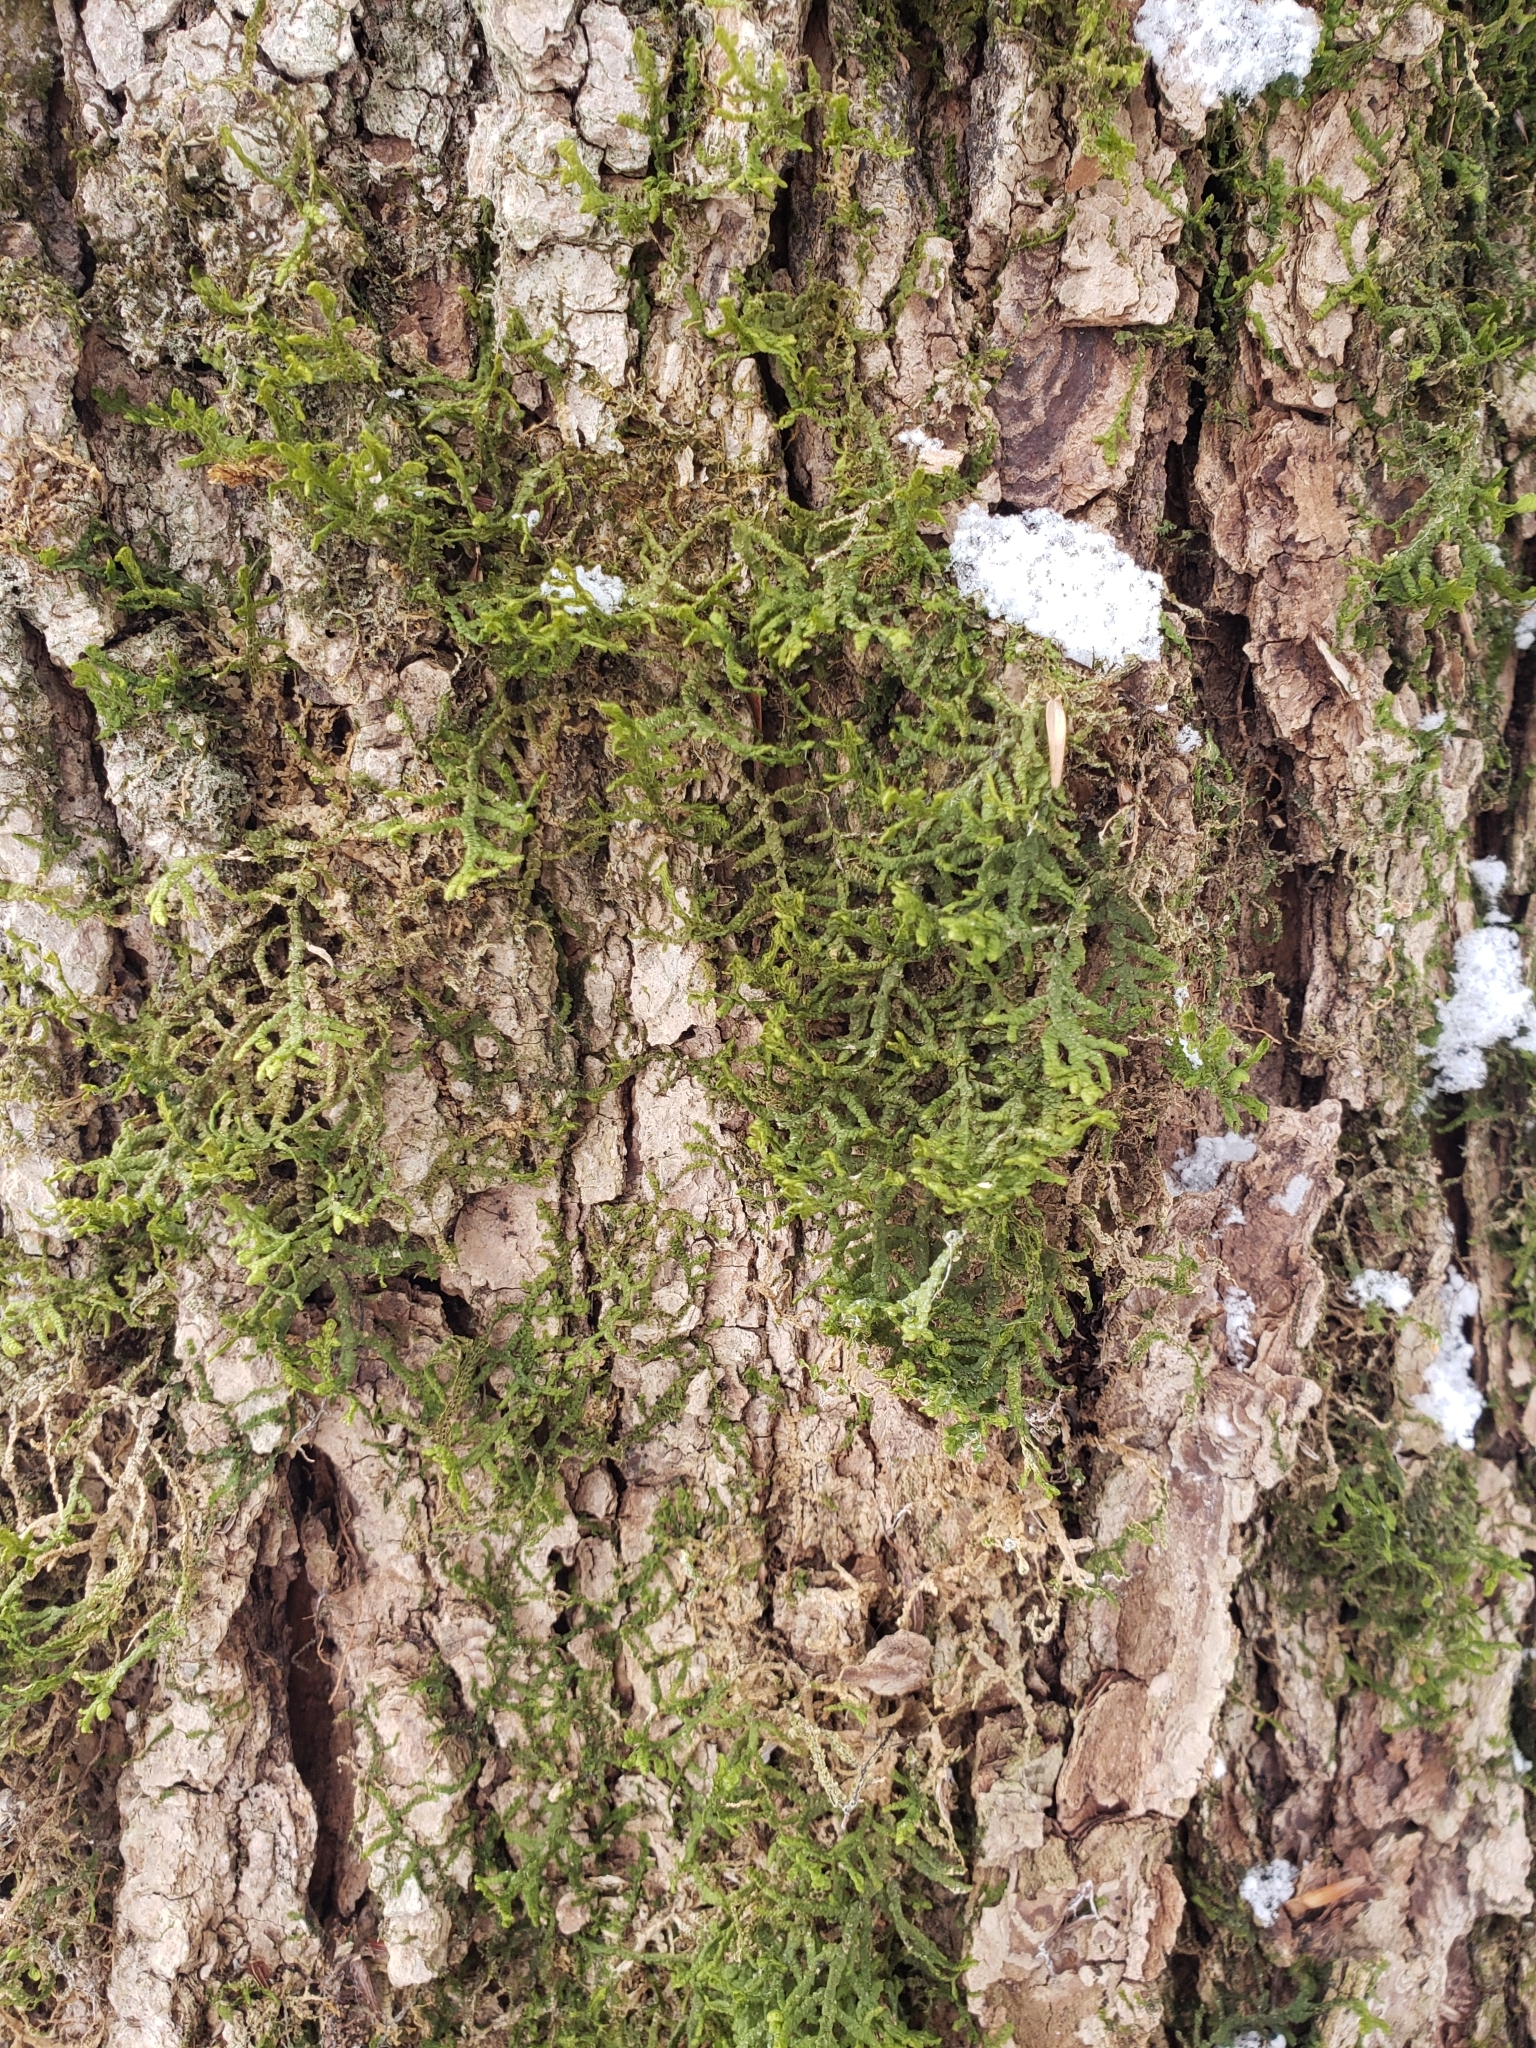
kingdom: Plantae
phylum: Marchantiophyta
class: Jungermanniopsida
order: Porellales
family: Porellaceae
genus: Porella
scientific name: Porella platyphylla
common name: Wall scalewort
